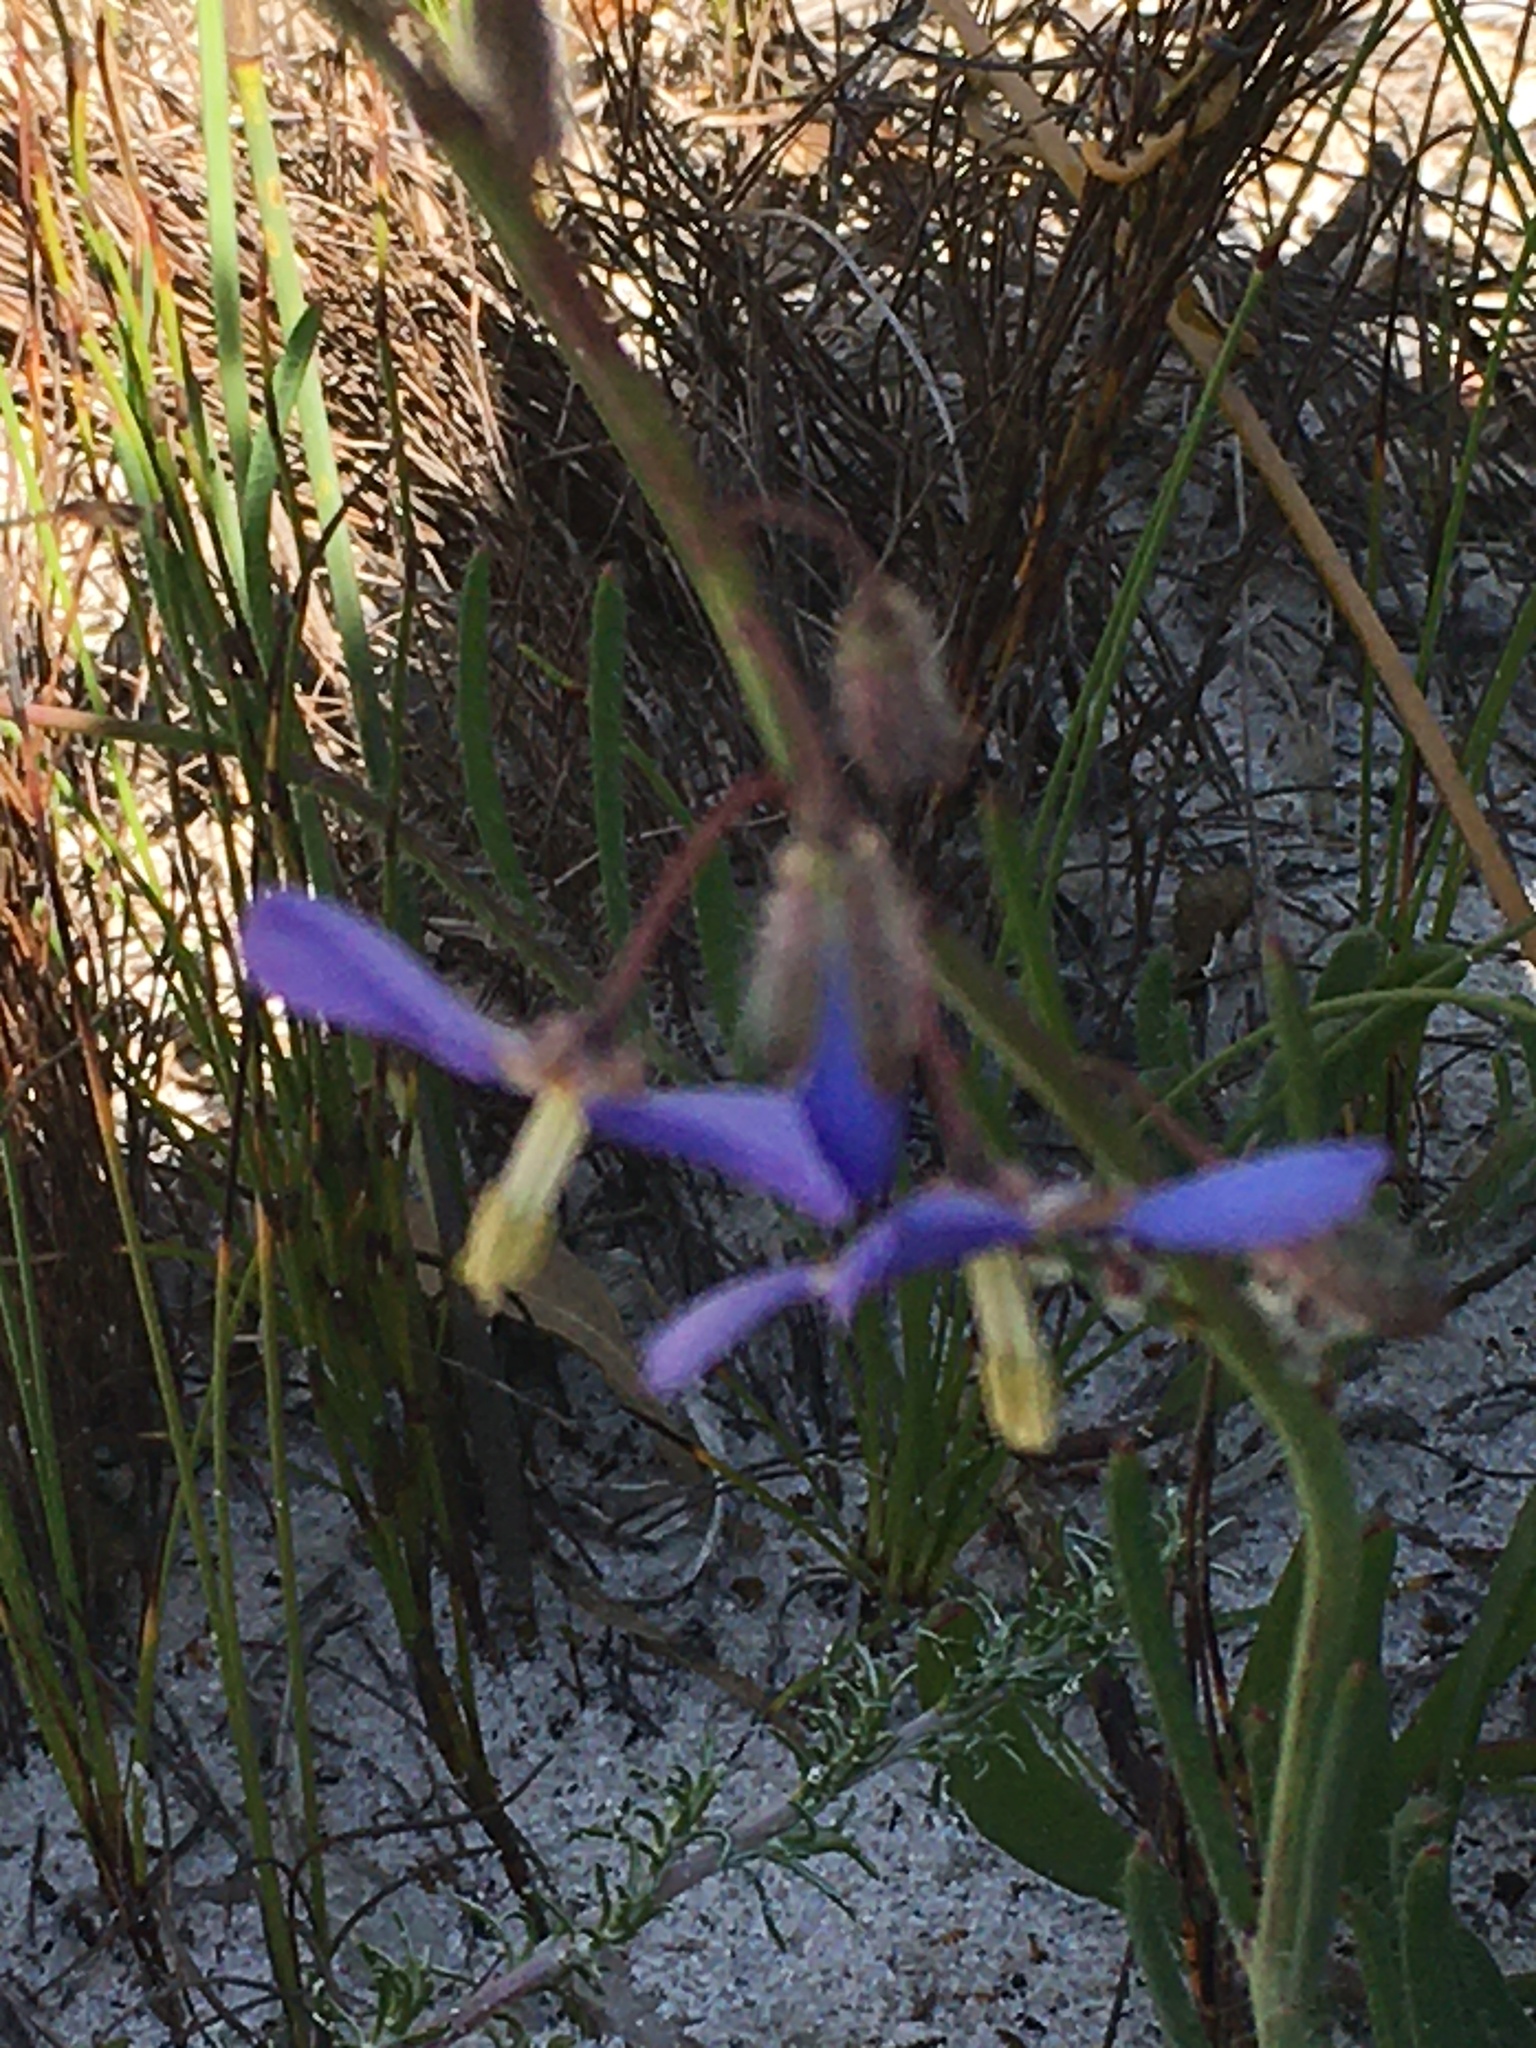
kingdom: Plantae
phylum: Tracheophyta
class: Magnoliopsida
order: Brassicales
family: Brassicaceae
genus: Heliophila
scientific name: Heliophila linearis
